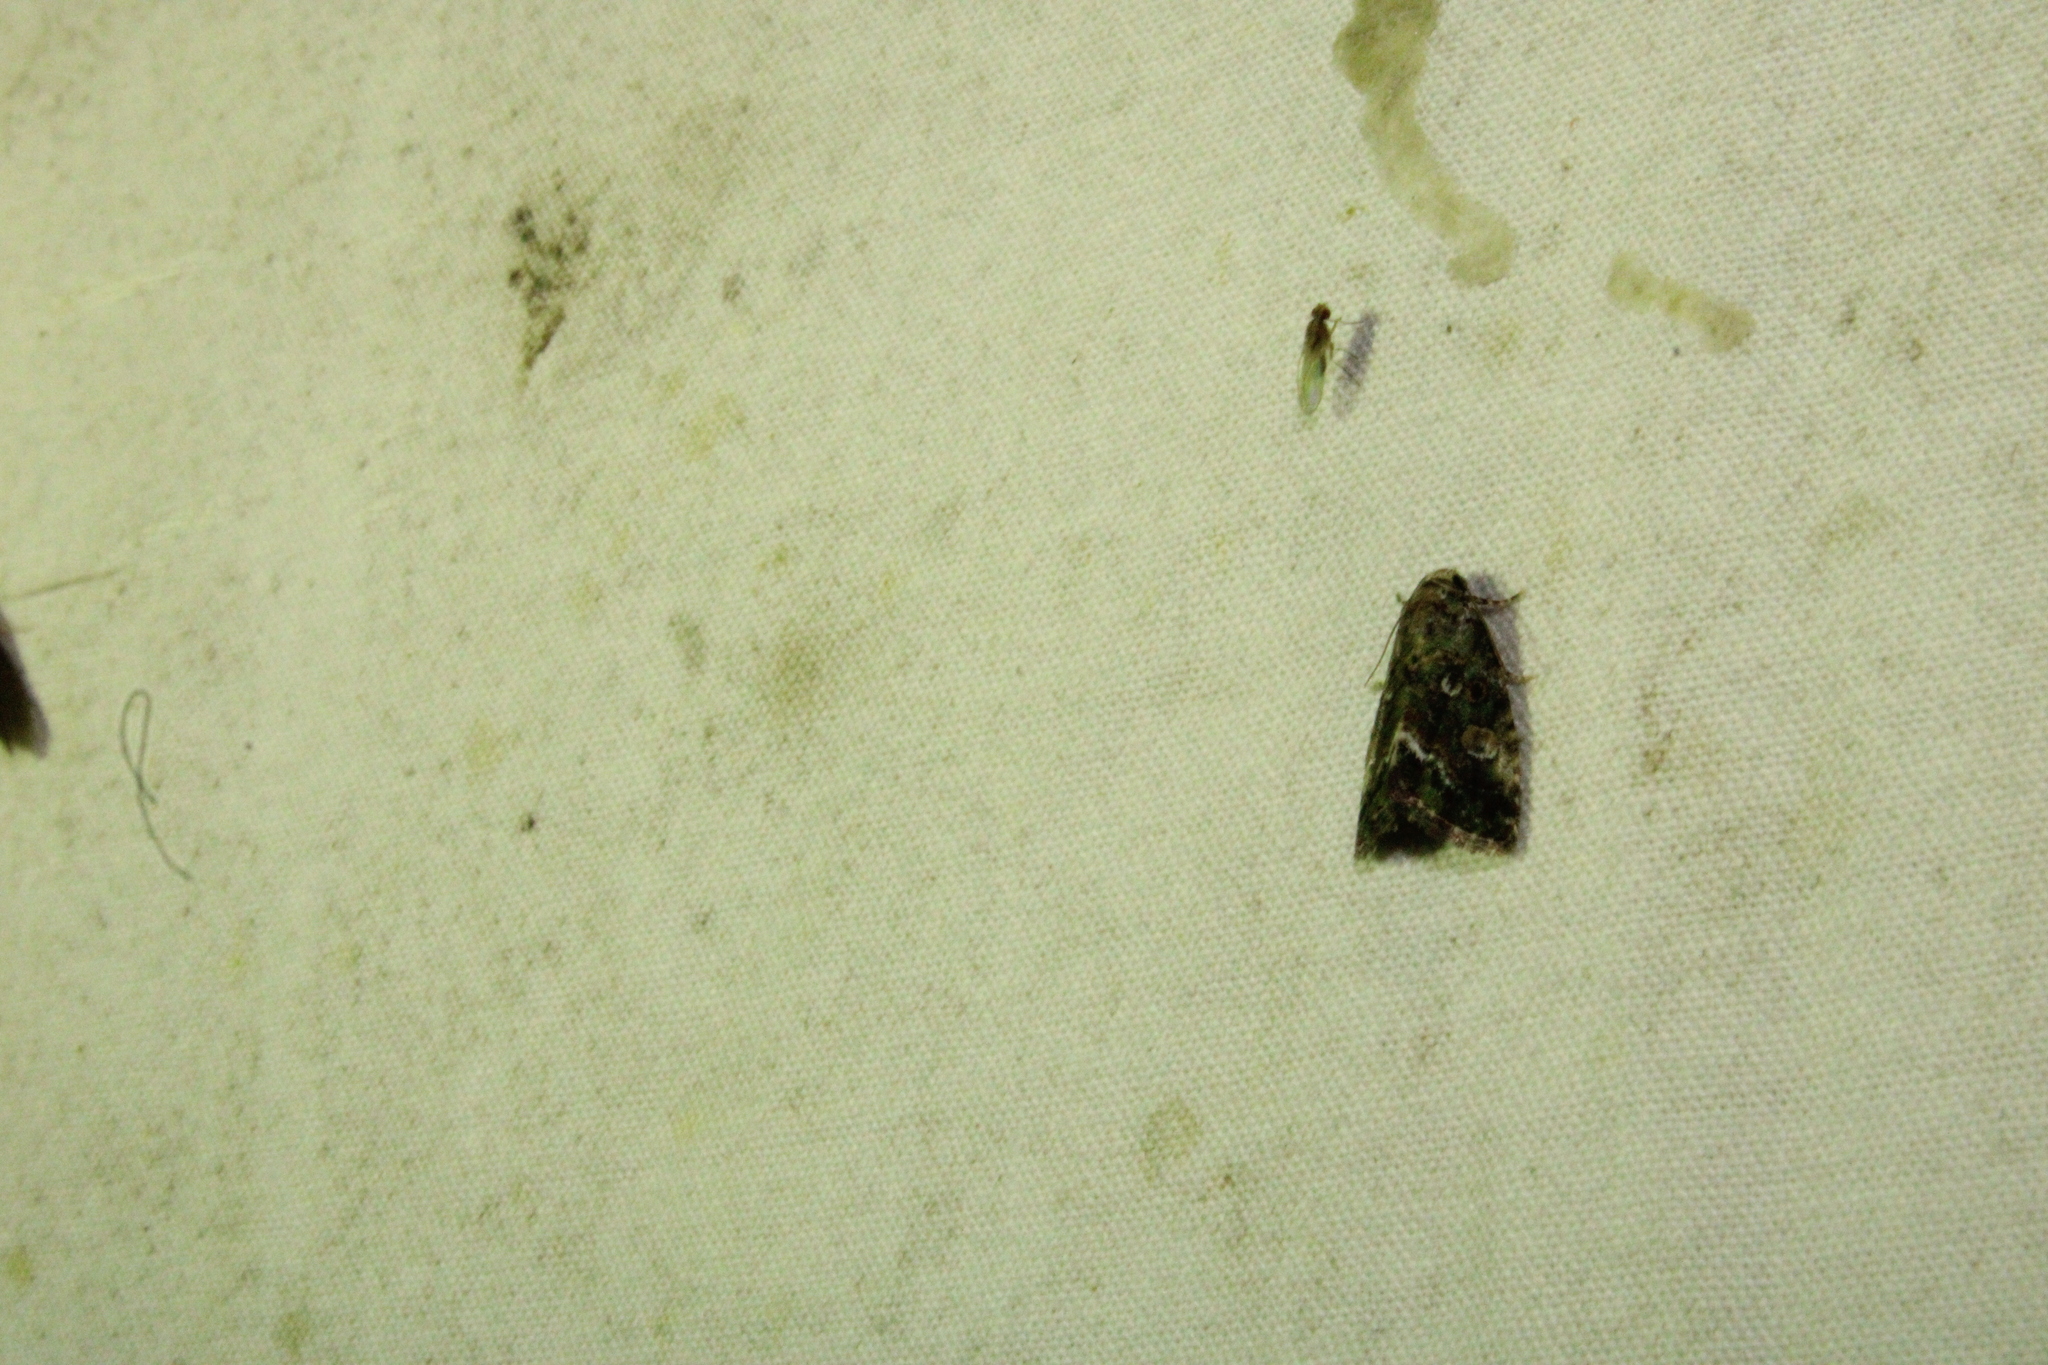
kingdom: Animalia
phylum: Arthropoda
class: Insecta
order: Lepidoptera
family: Noctuidae
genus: Lithacodia
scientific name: Lithacodia musta
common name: Small mossy glyph
